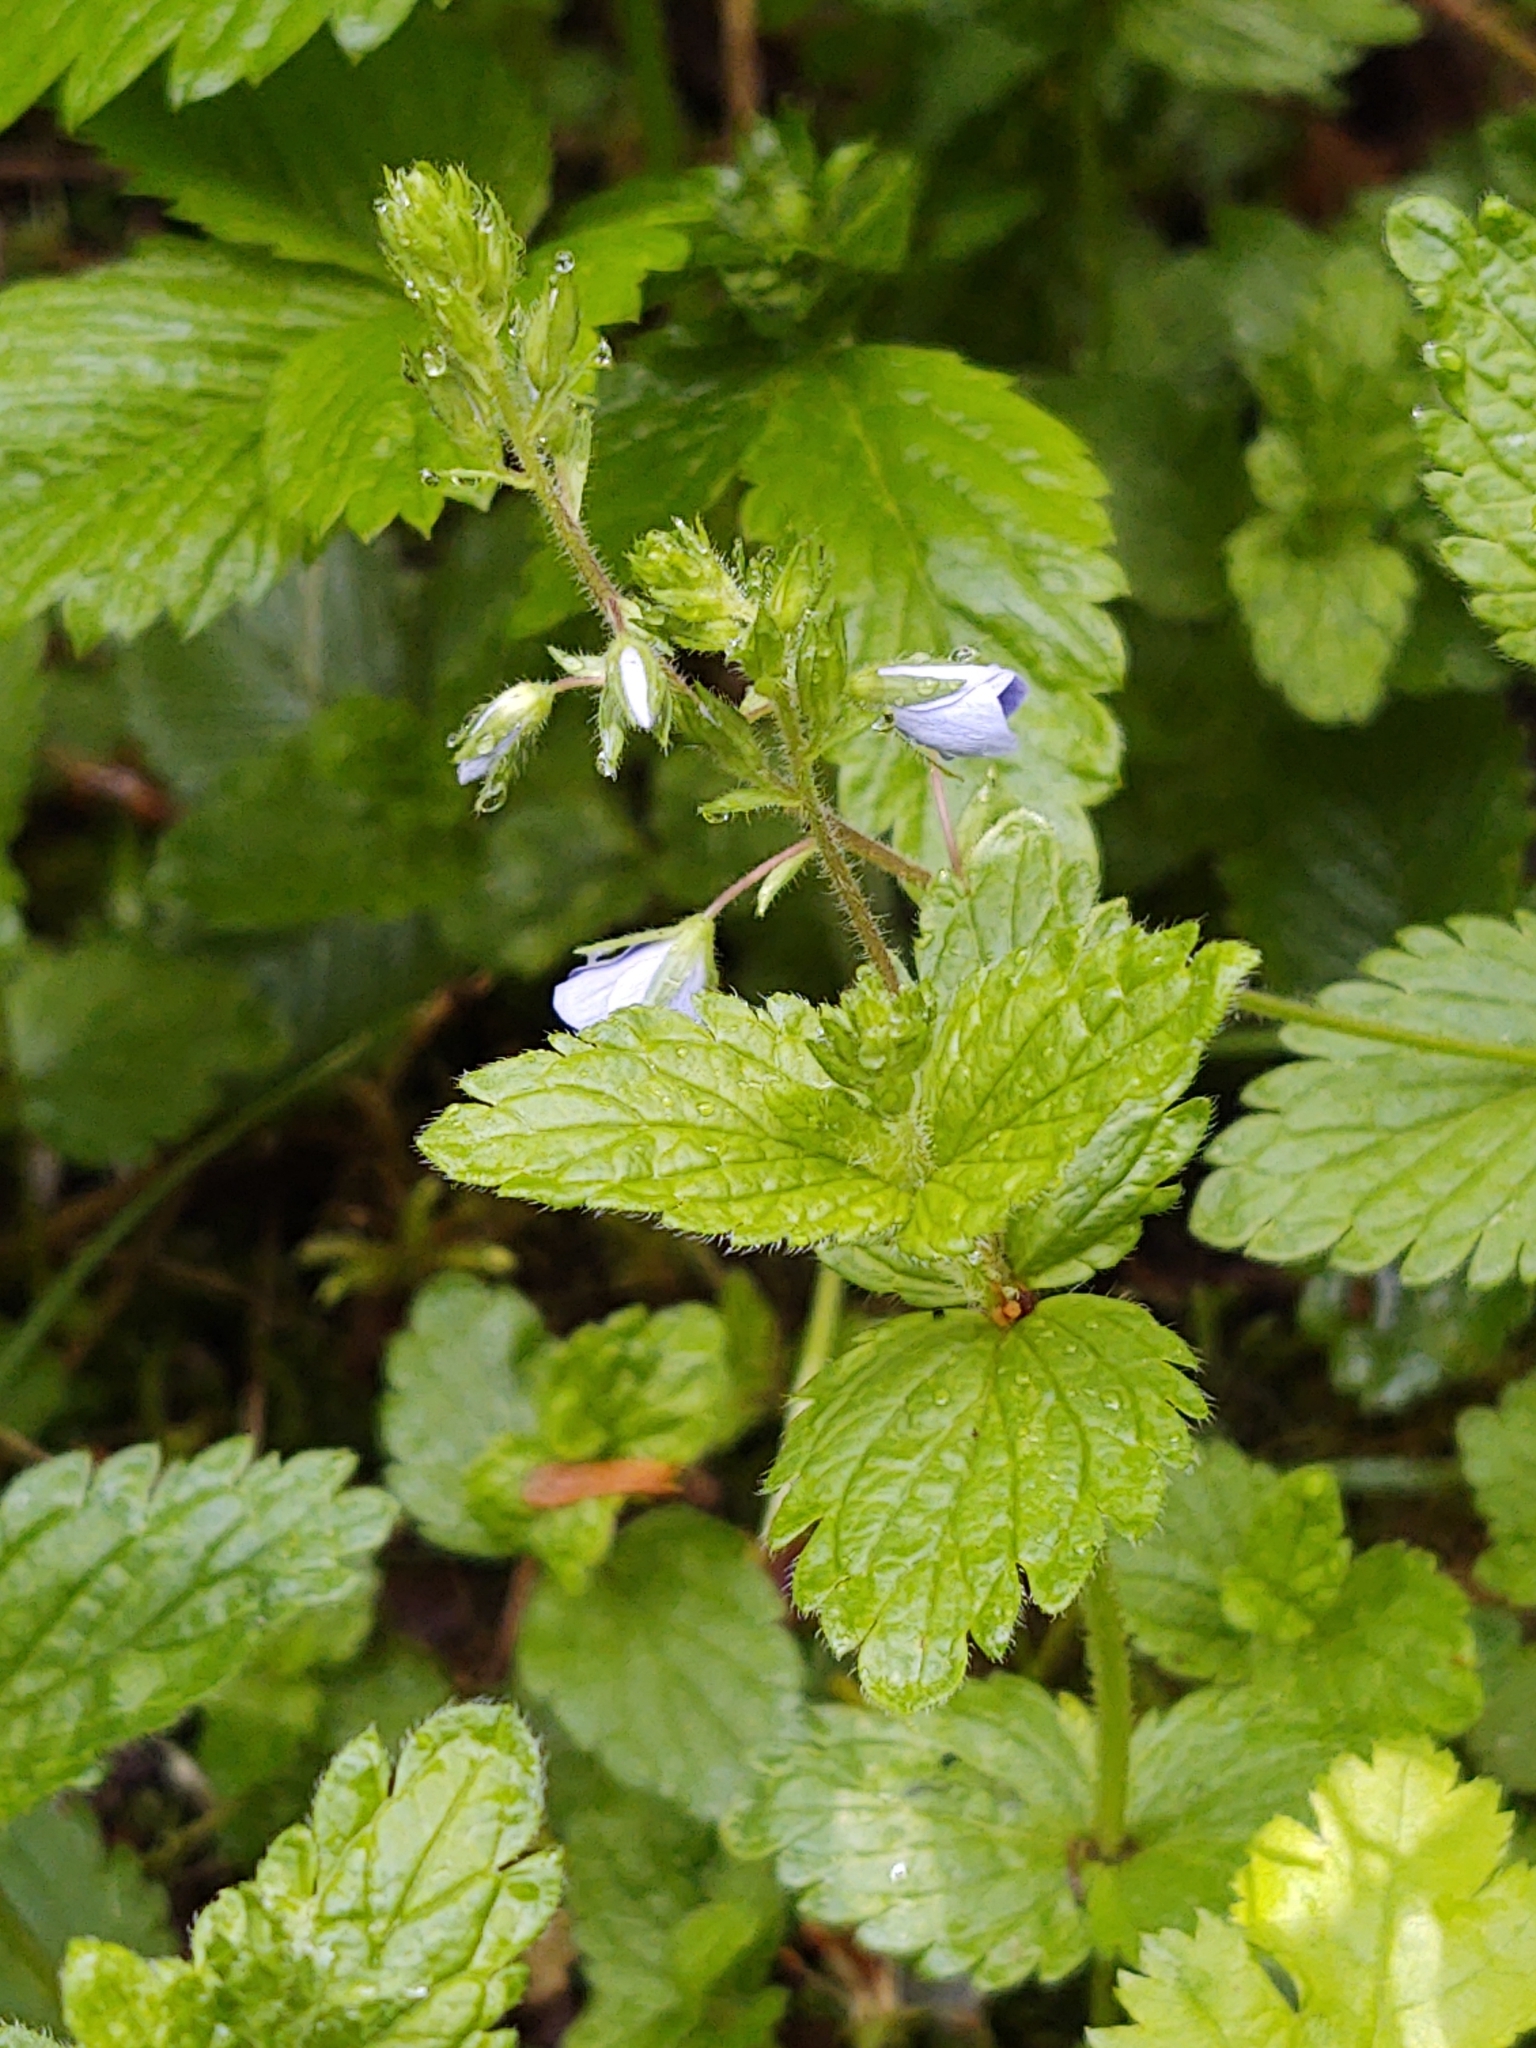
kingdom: Plantae
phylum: Tracheophyta
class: Magnoliopsida
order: Lamiales
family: Plantaginaceae
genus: Veronica
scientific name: Veronica chamaedrys
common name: Germander speedwell
